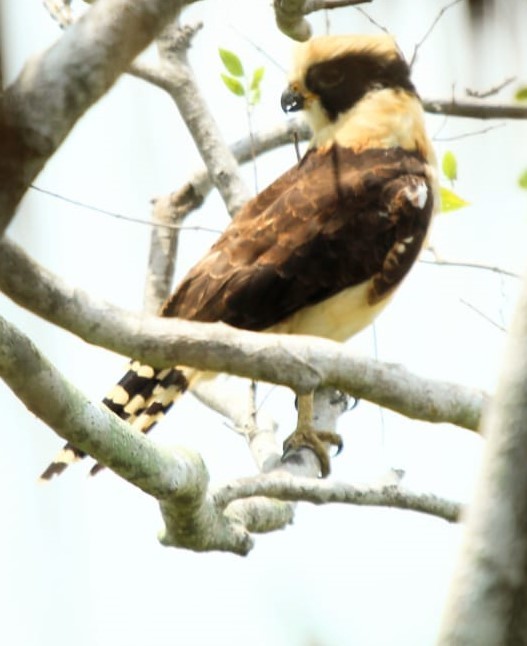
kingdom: Animalia
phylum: Chordata
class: Aves
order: Falconiformes
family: Falconidae
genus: Herpetotheres
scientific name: Herpetotheres cachinnans
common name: Laughing falcon
